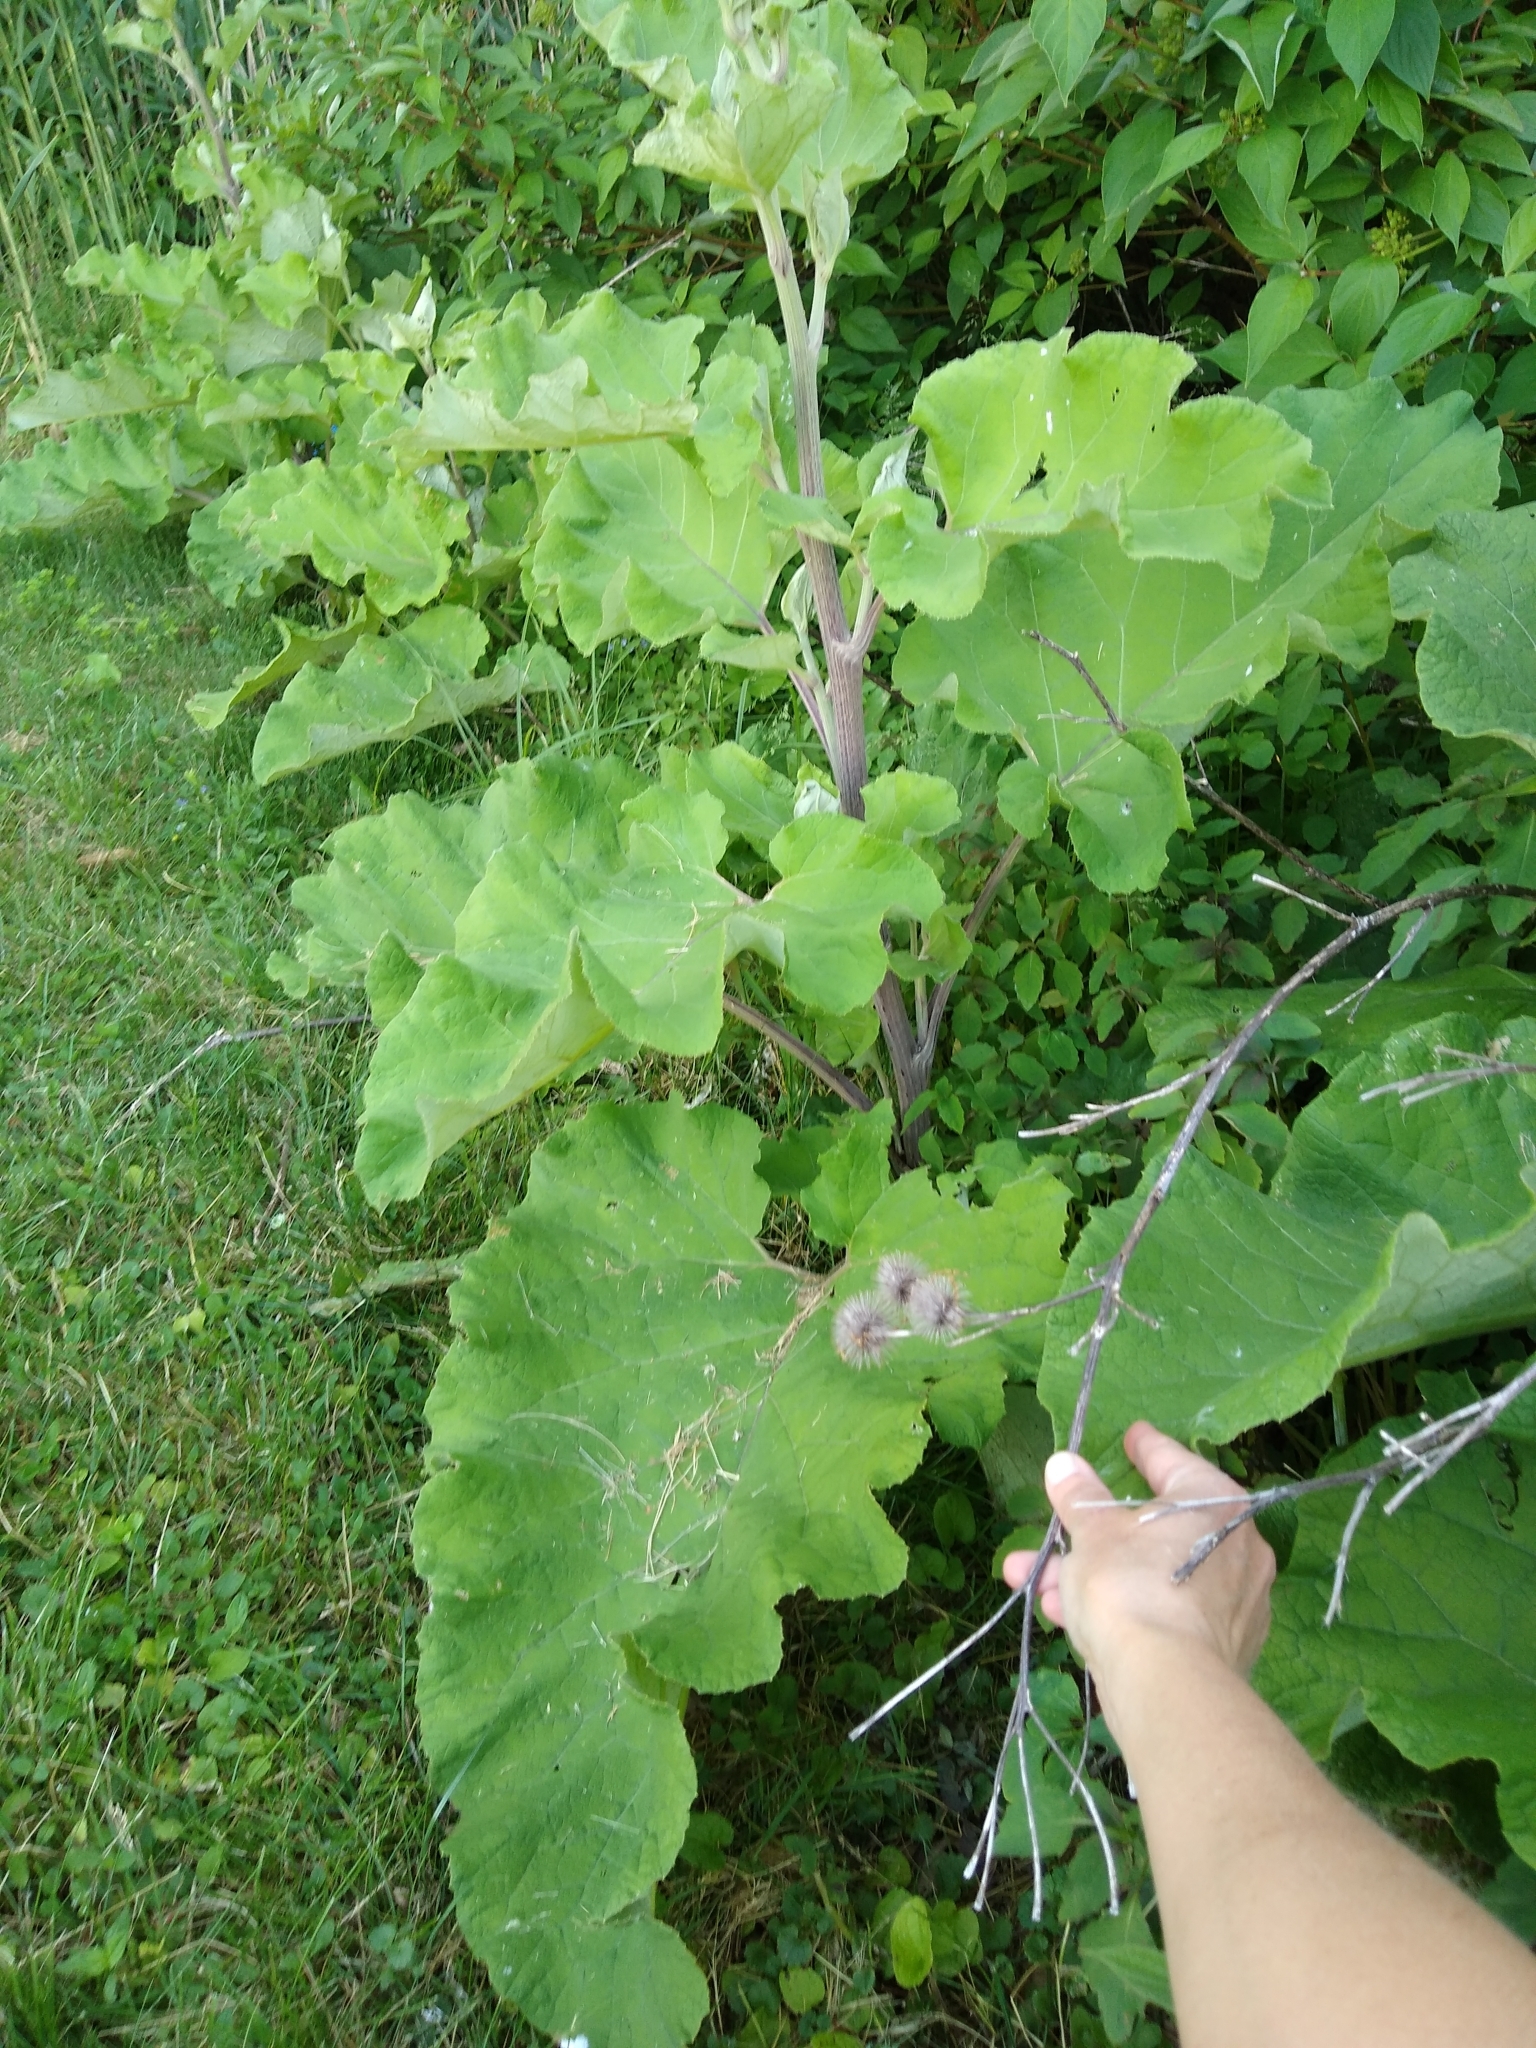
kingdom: Plantae
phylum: Tracheophyta
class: Magnoliopsida
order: Asterales
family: Asteraceae
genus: Arctium
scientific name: Arctium lappa
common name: Greater burdock
